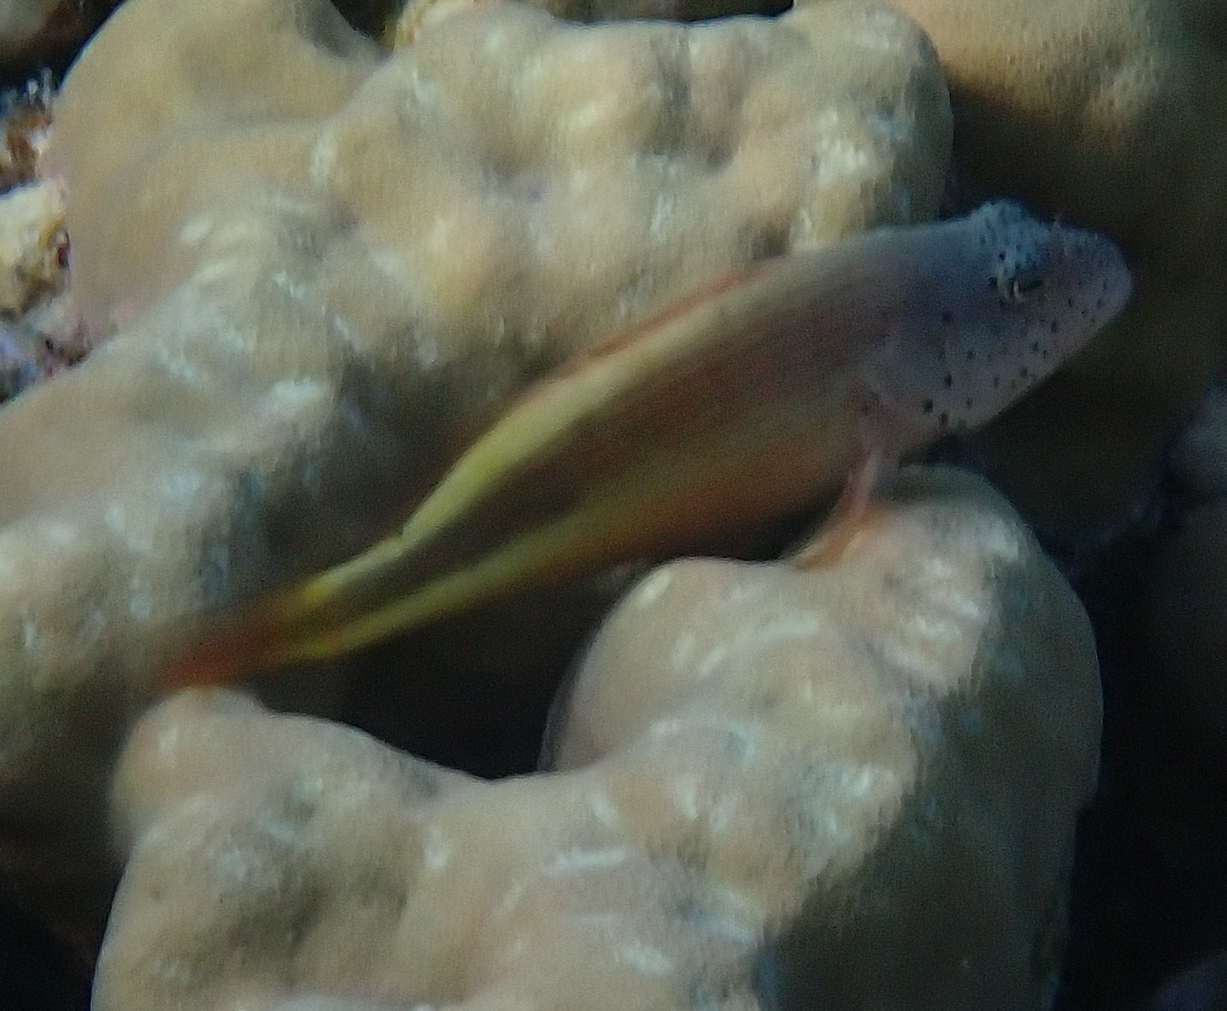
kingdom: Animalia
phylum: Chordata
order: Perciformes
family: Cirrhitidae
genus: Paracirrhites
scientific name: Paracirrhites forsteri
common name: Freckled hawkfish
